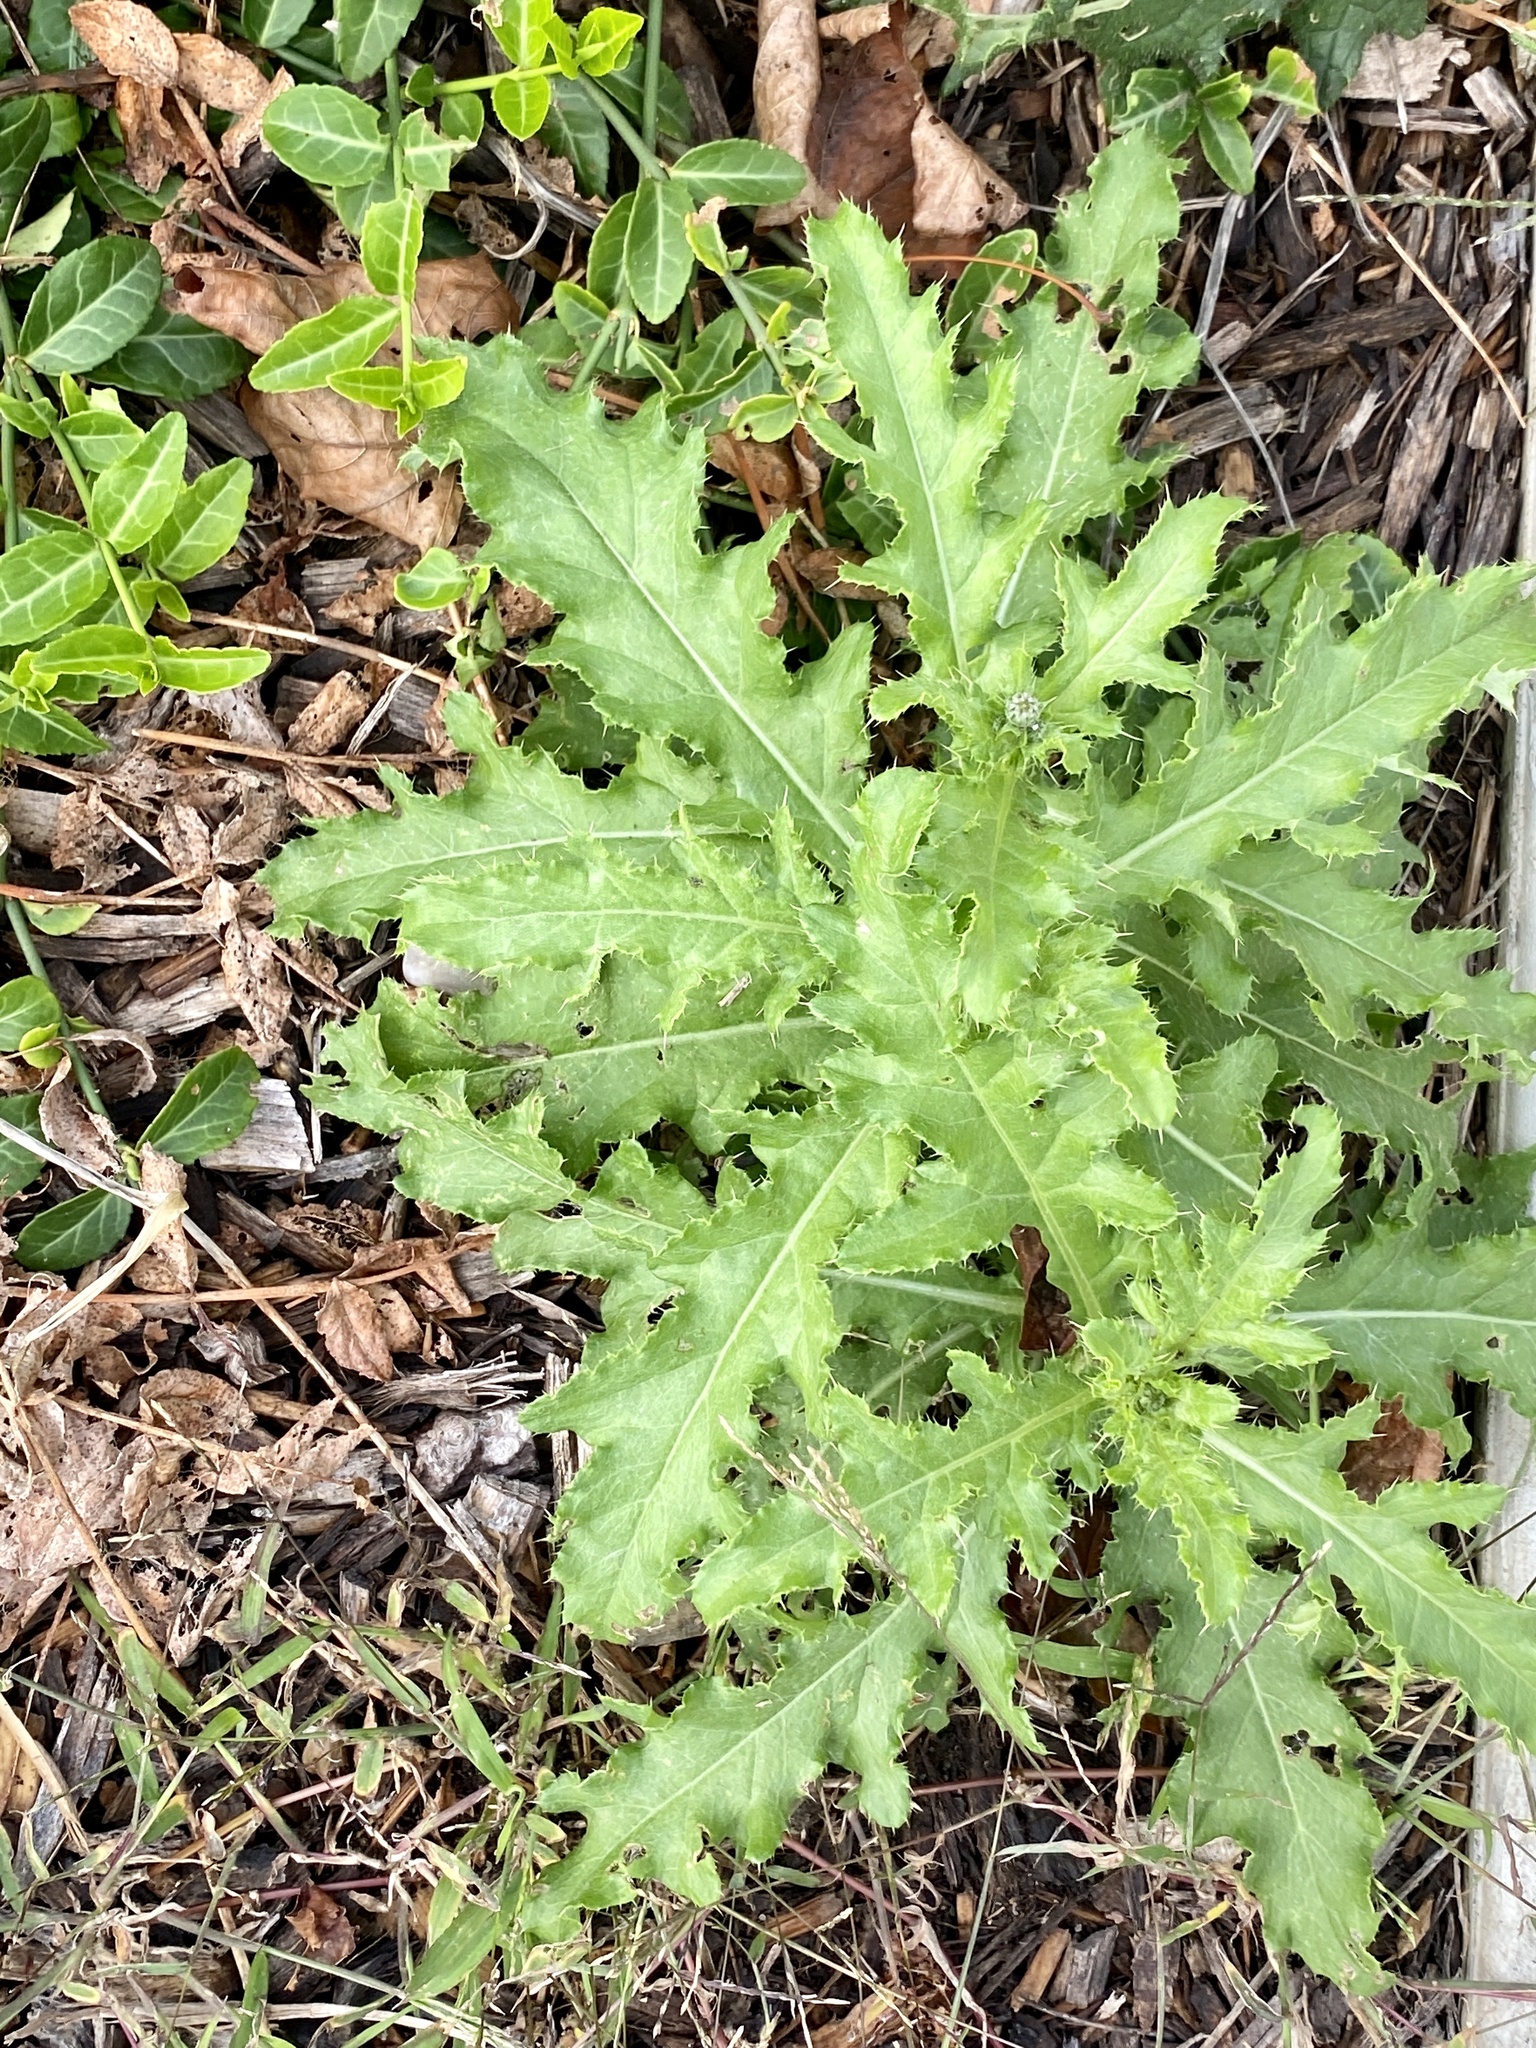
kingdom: Plantae
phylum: Tracheophyta
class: Magnoliopsida
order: Asterales
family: Asteraceae
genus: Cirsium
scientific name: Cirsium arvense
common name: Creeping thistle
